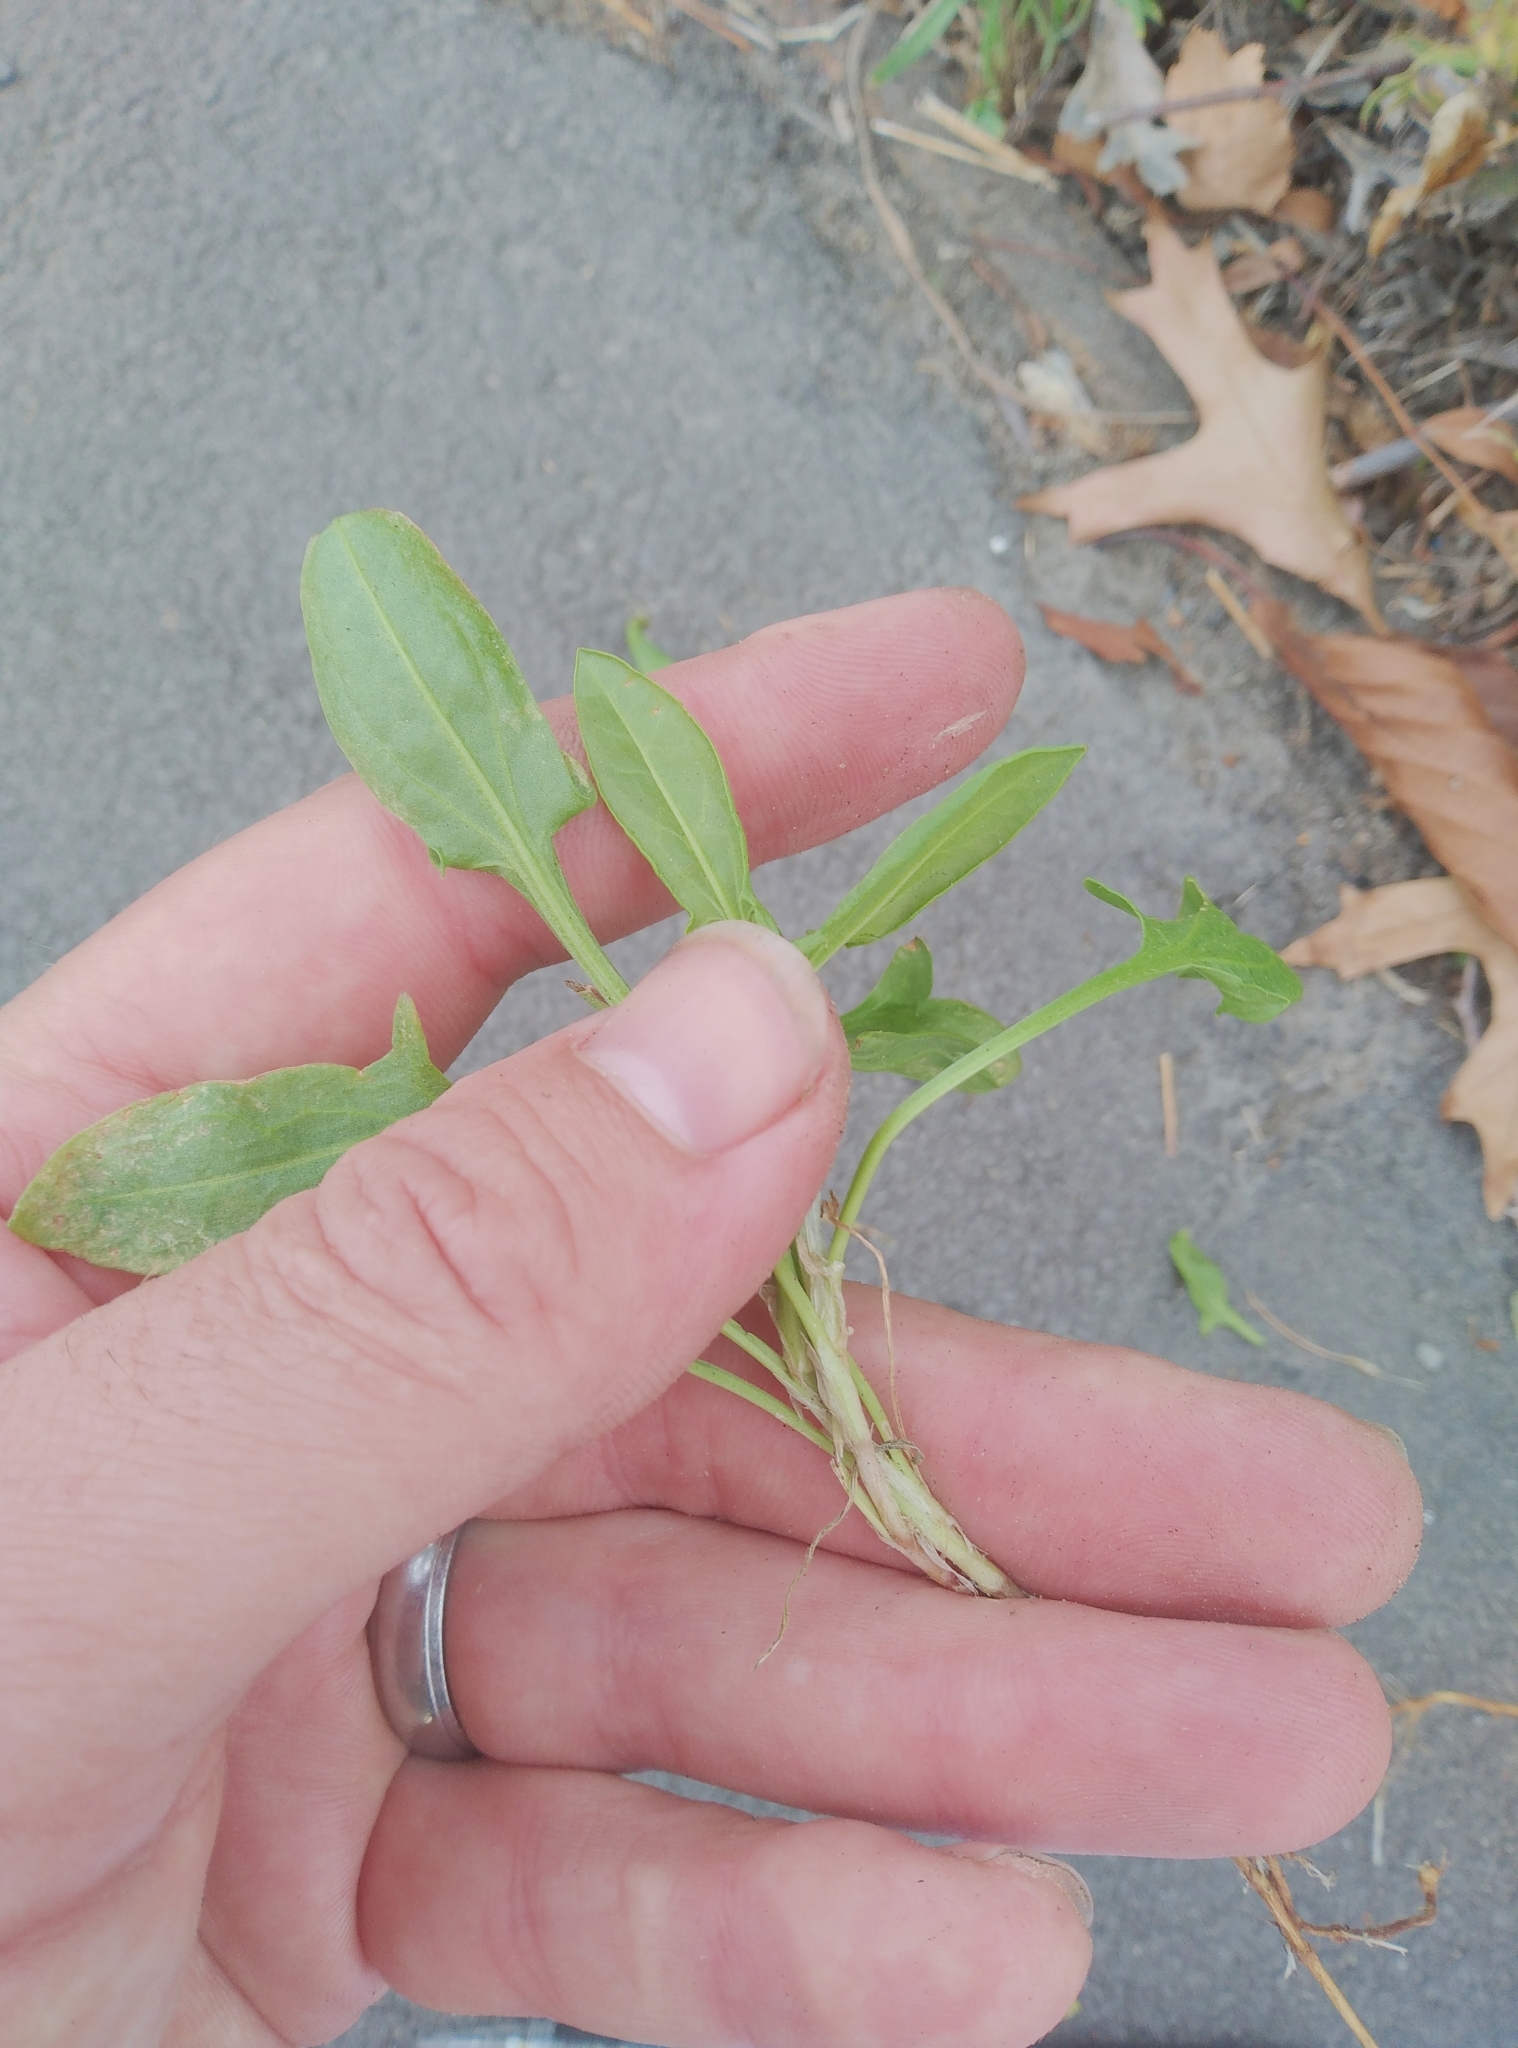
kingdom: Plantae
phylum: Tracheophyta
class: Magnoliopsida
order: Caryophyllales
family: Polygonaceae
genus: Rumex
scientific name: Rumex acetosella
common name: Common sheep sorrel
